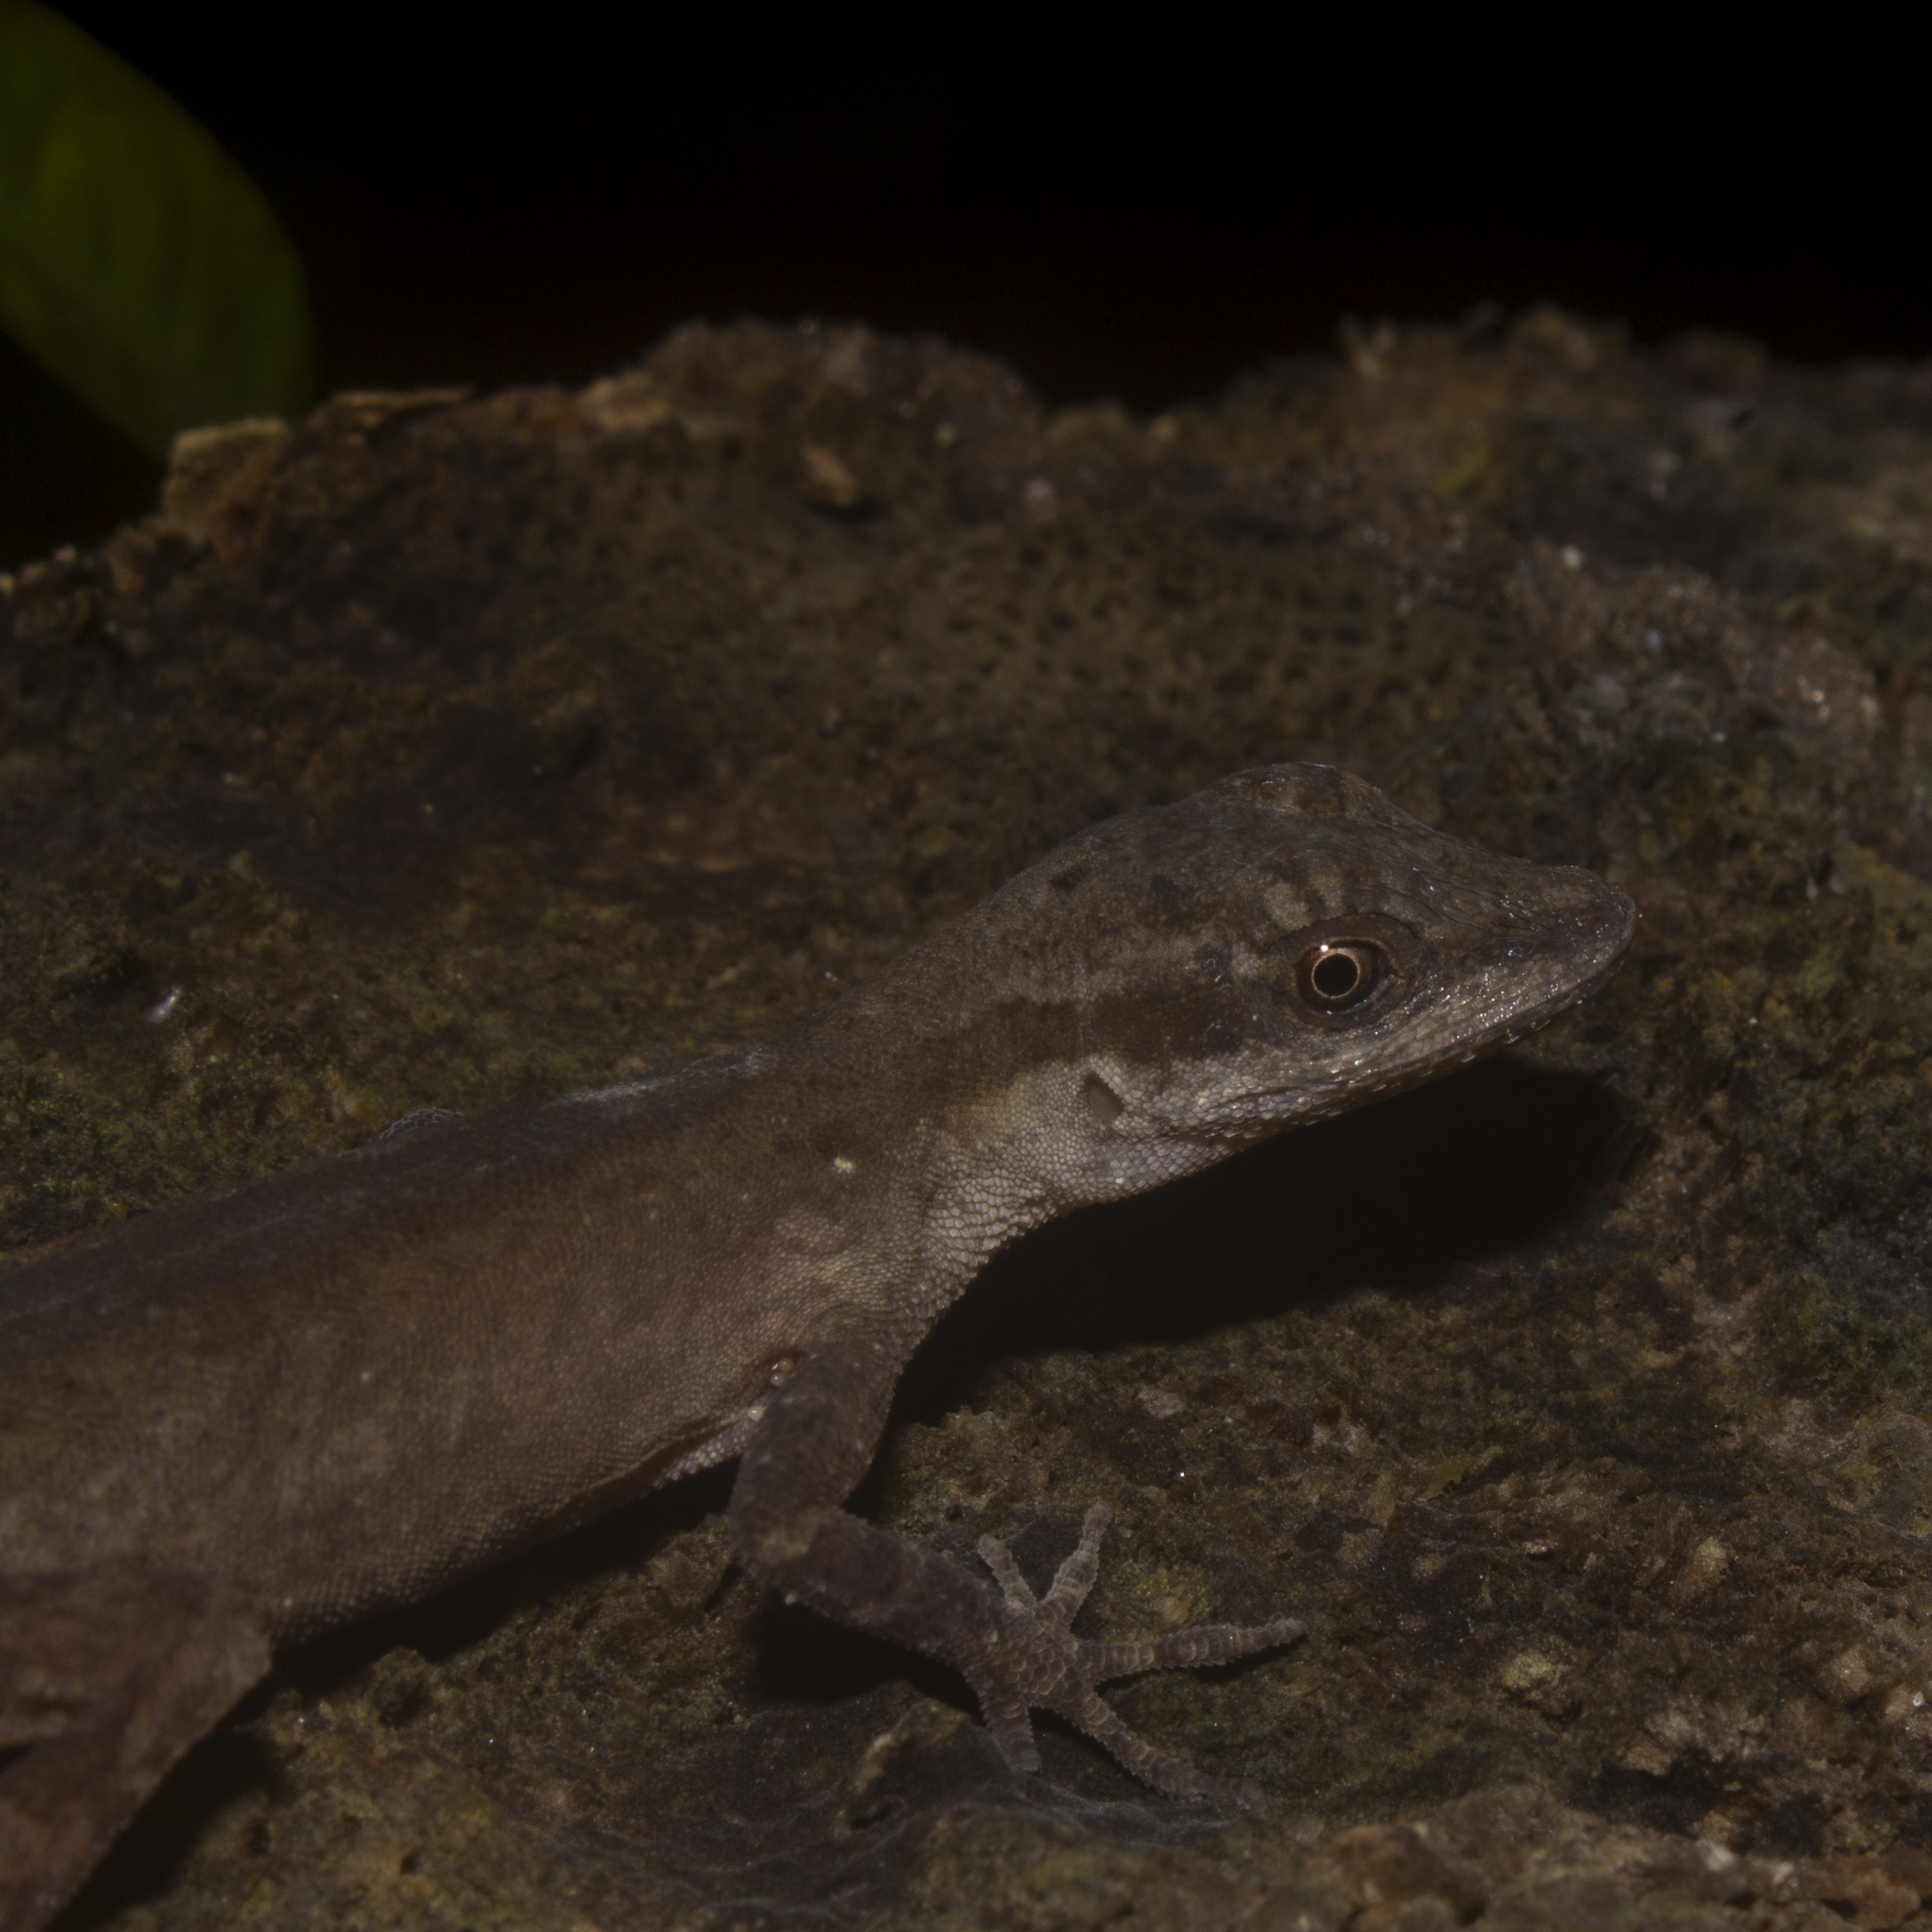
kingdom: Animalia
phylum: Chordata
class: Squamata
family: Dactyloidae
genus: Anolis
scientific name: Anolis gaigei
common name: Gaige’s anole
